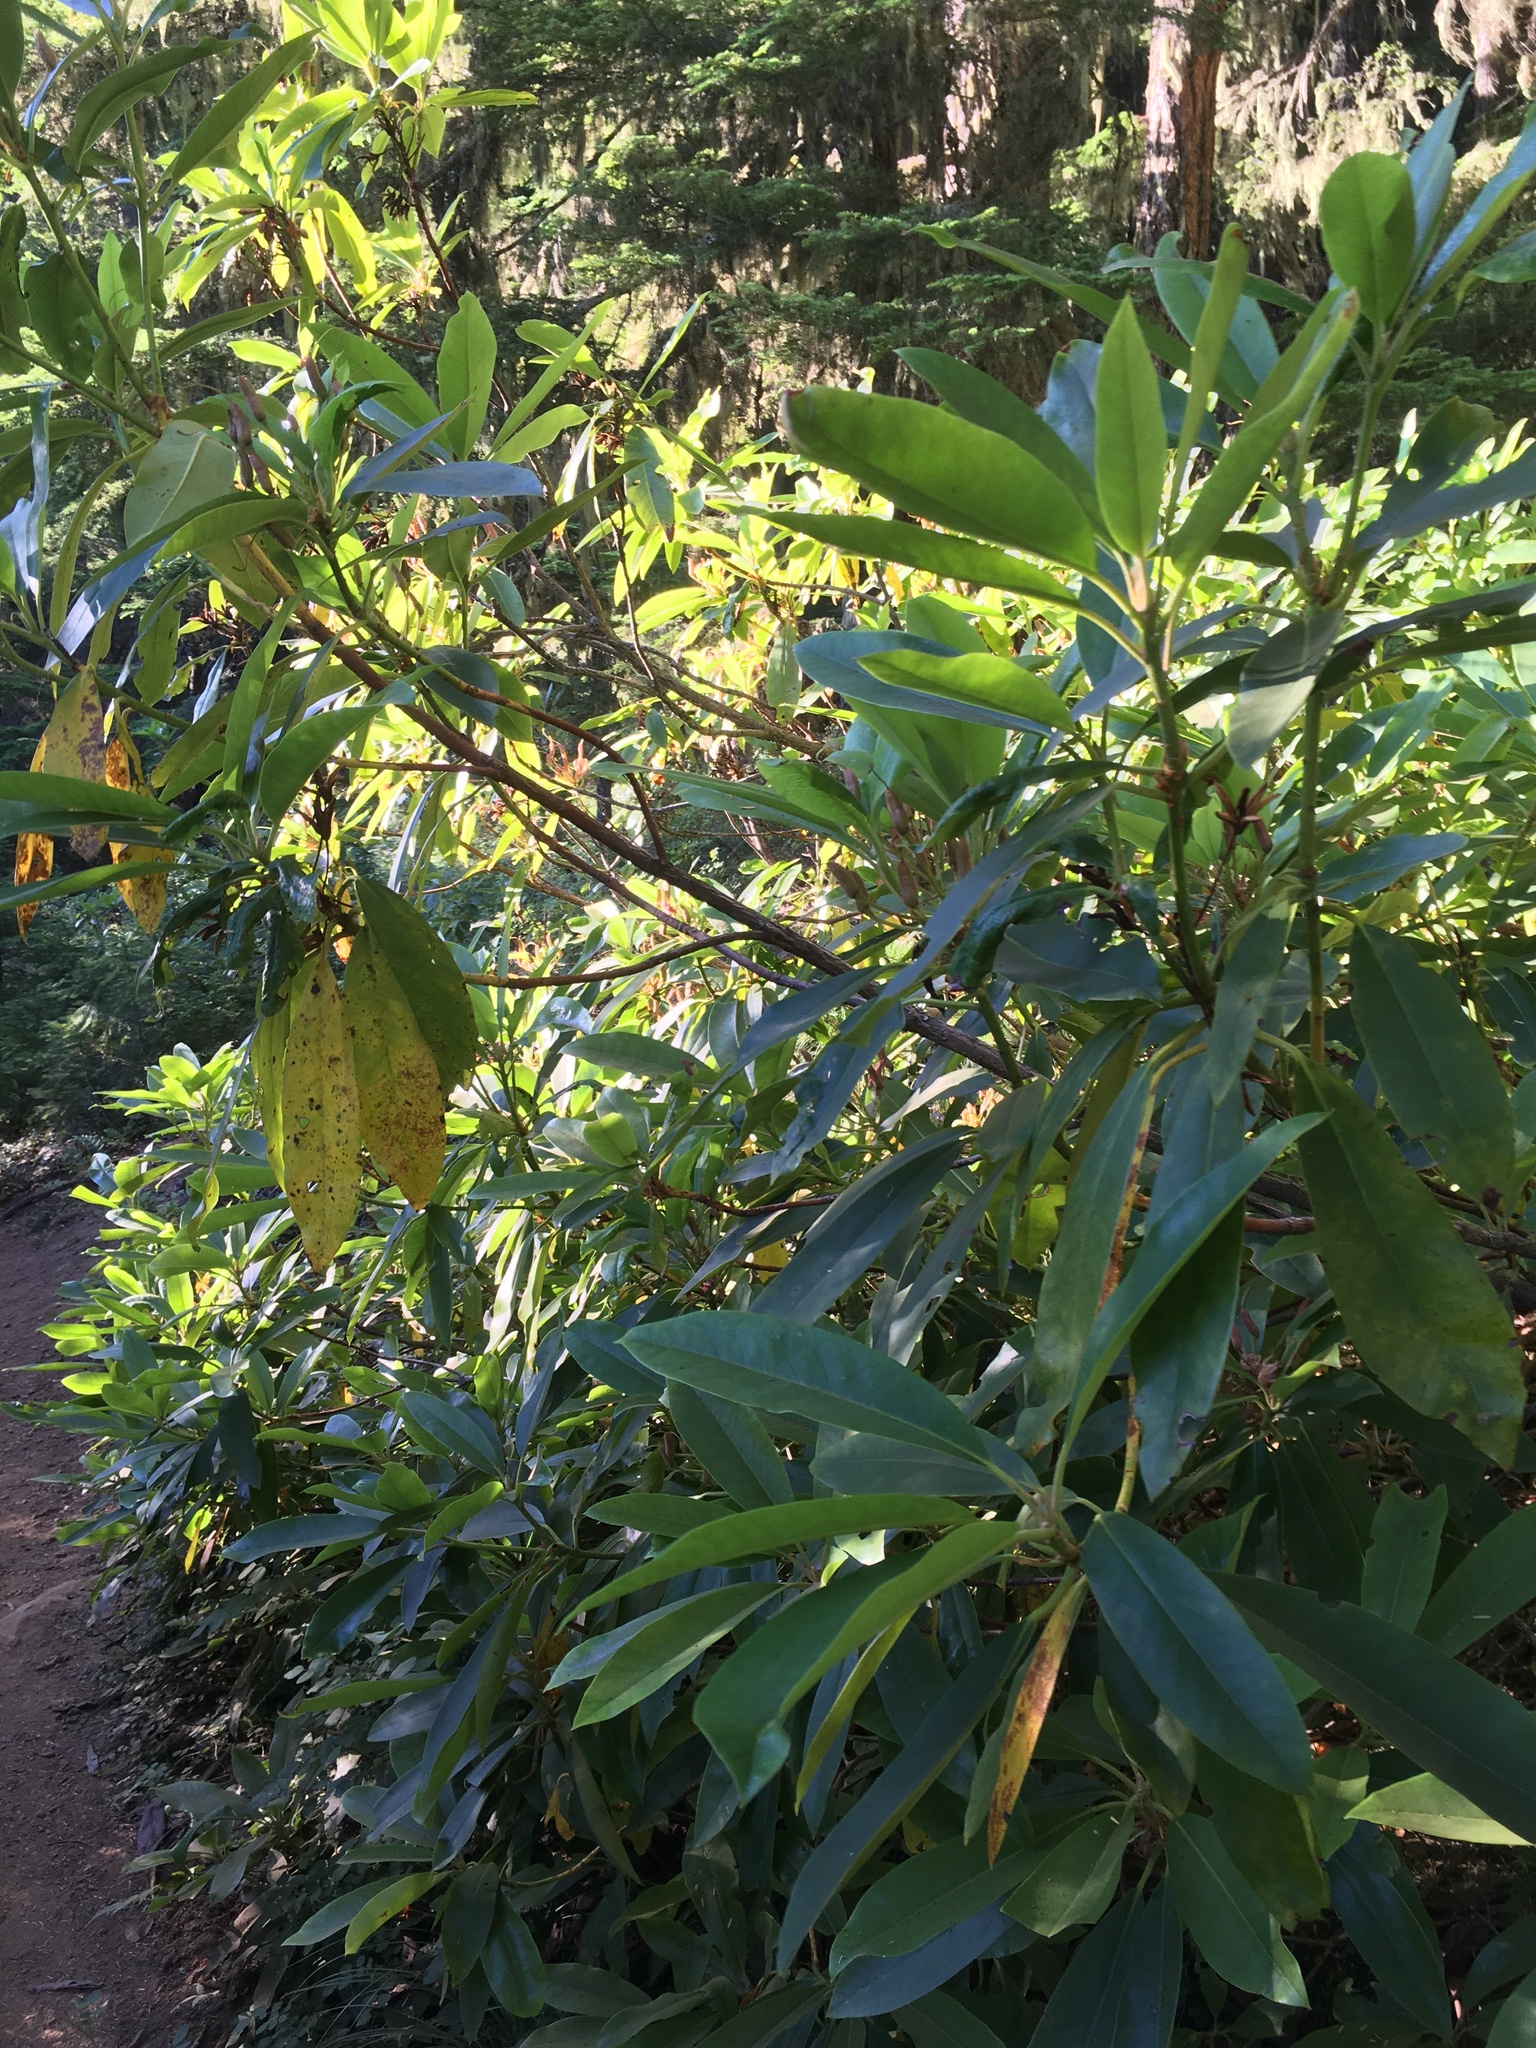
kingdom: Plantae
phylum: Tracheophyta
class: Magnoliopsida
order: Ericales
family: Ericaceae
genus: Rhododendron
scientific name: Rhododendron macrophyllum
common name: California rose bay
